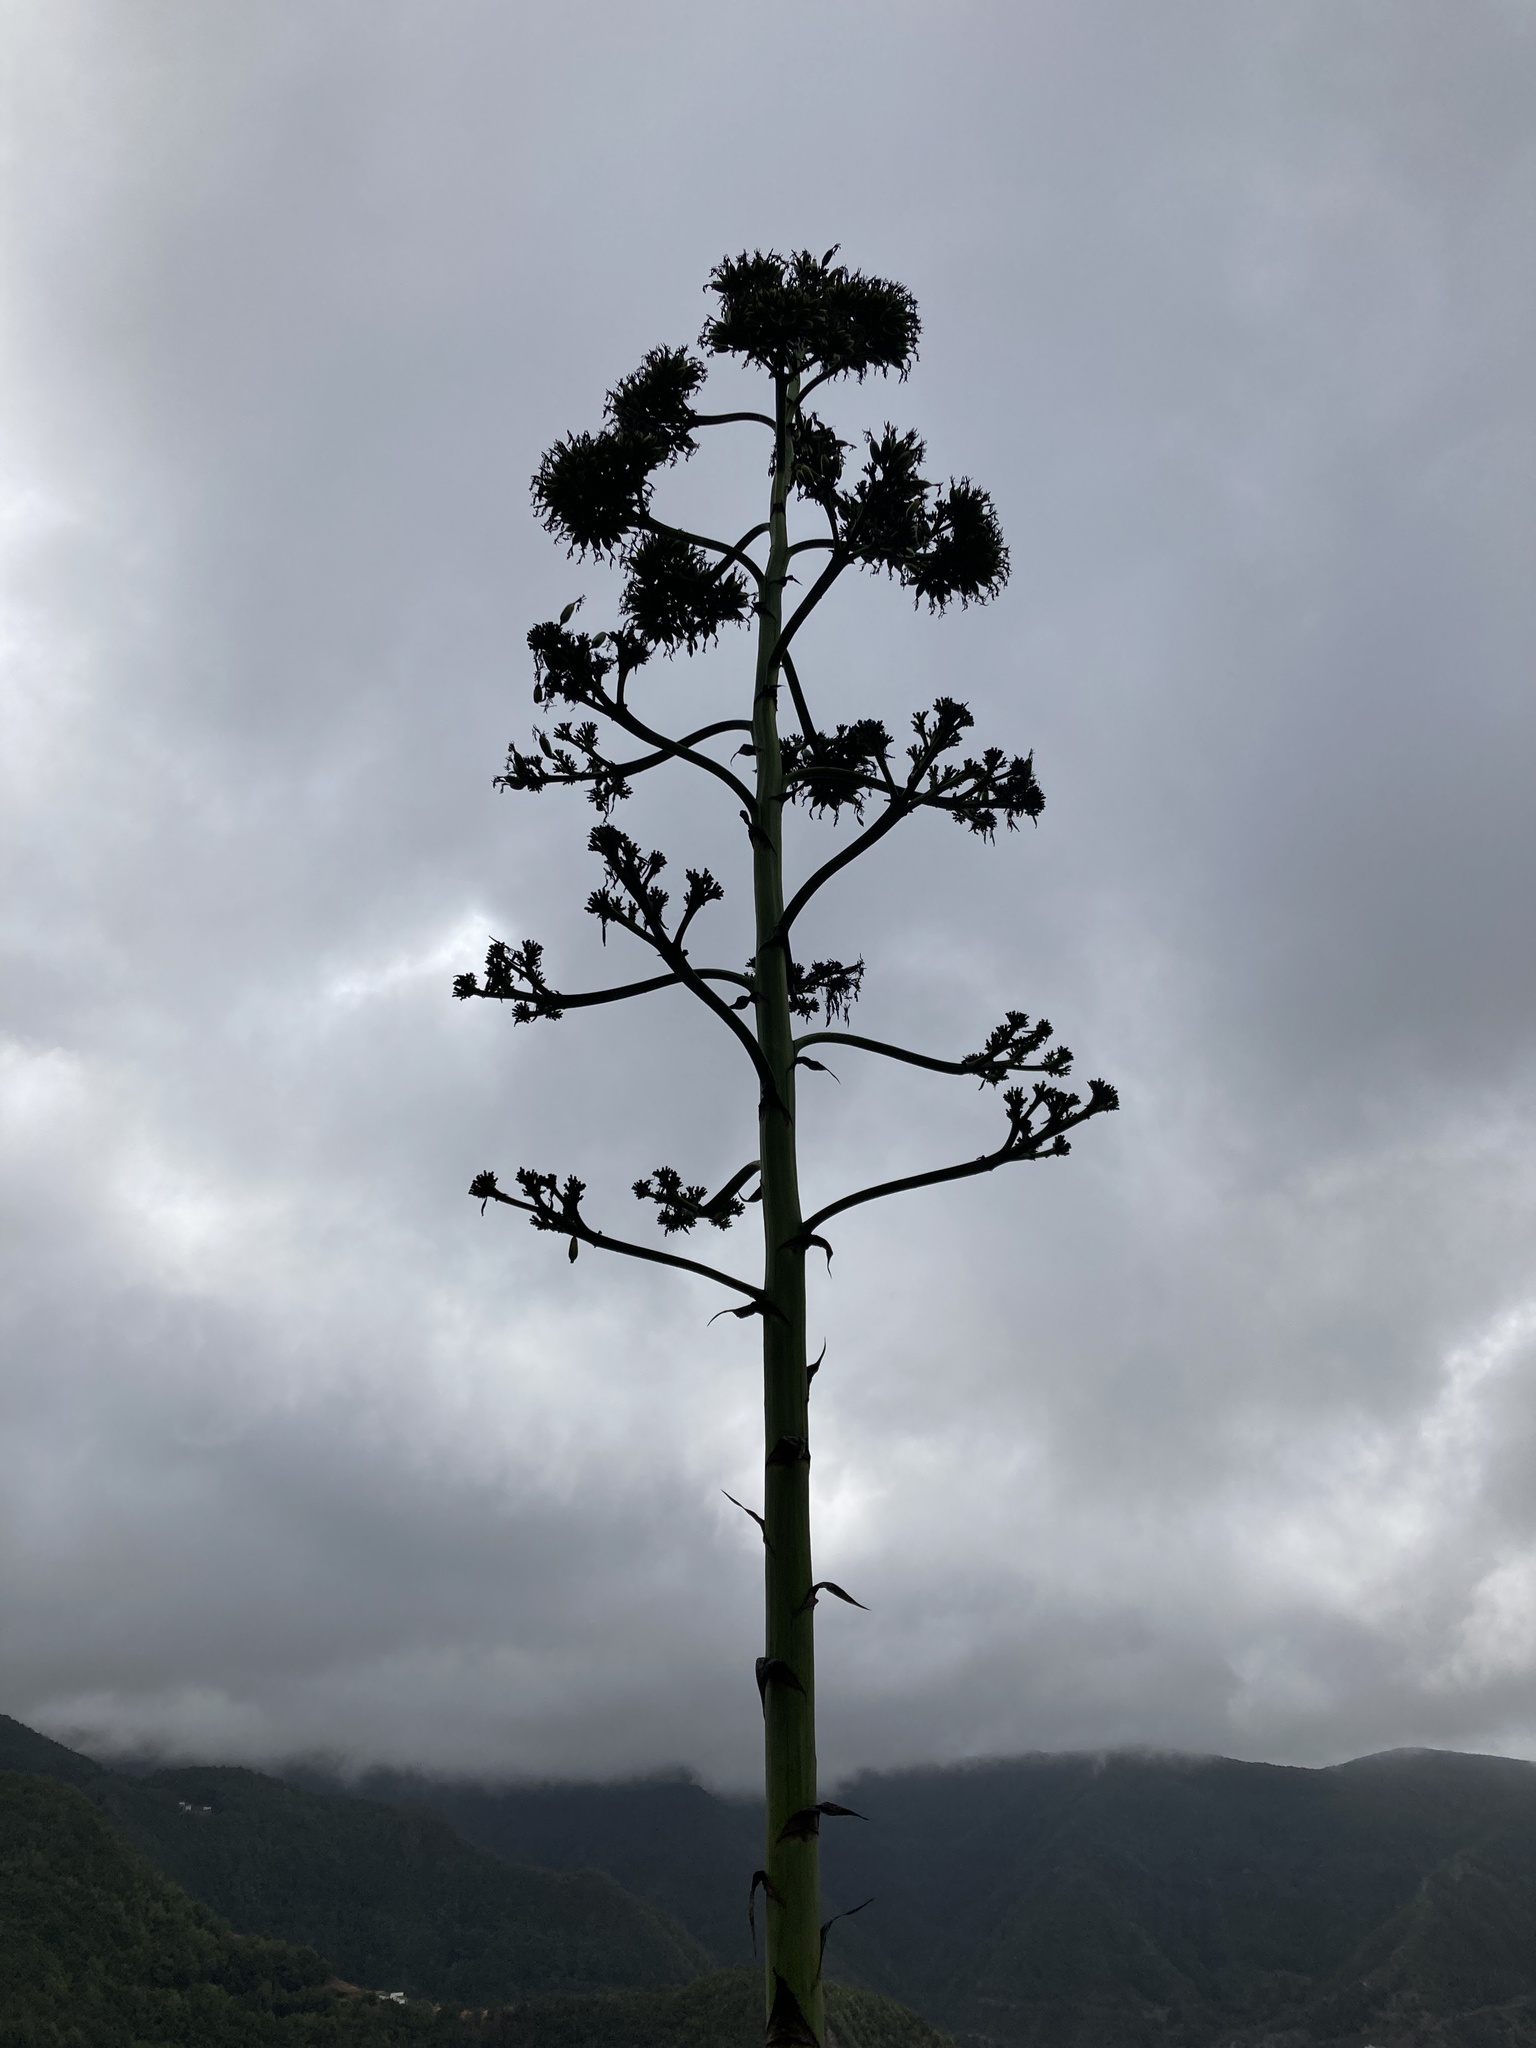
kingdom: Plantae
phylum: Tracheophyta
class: Liliopsida
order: Asparagales
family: Asparagaceae
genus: Agave
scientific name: Agave americana
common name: Centuryplant
